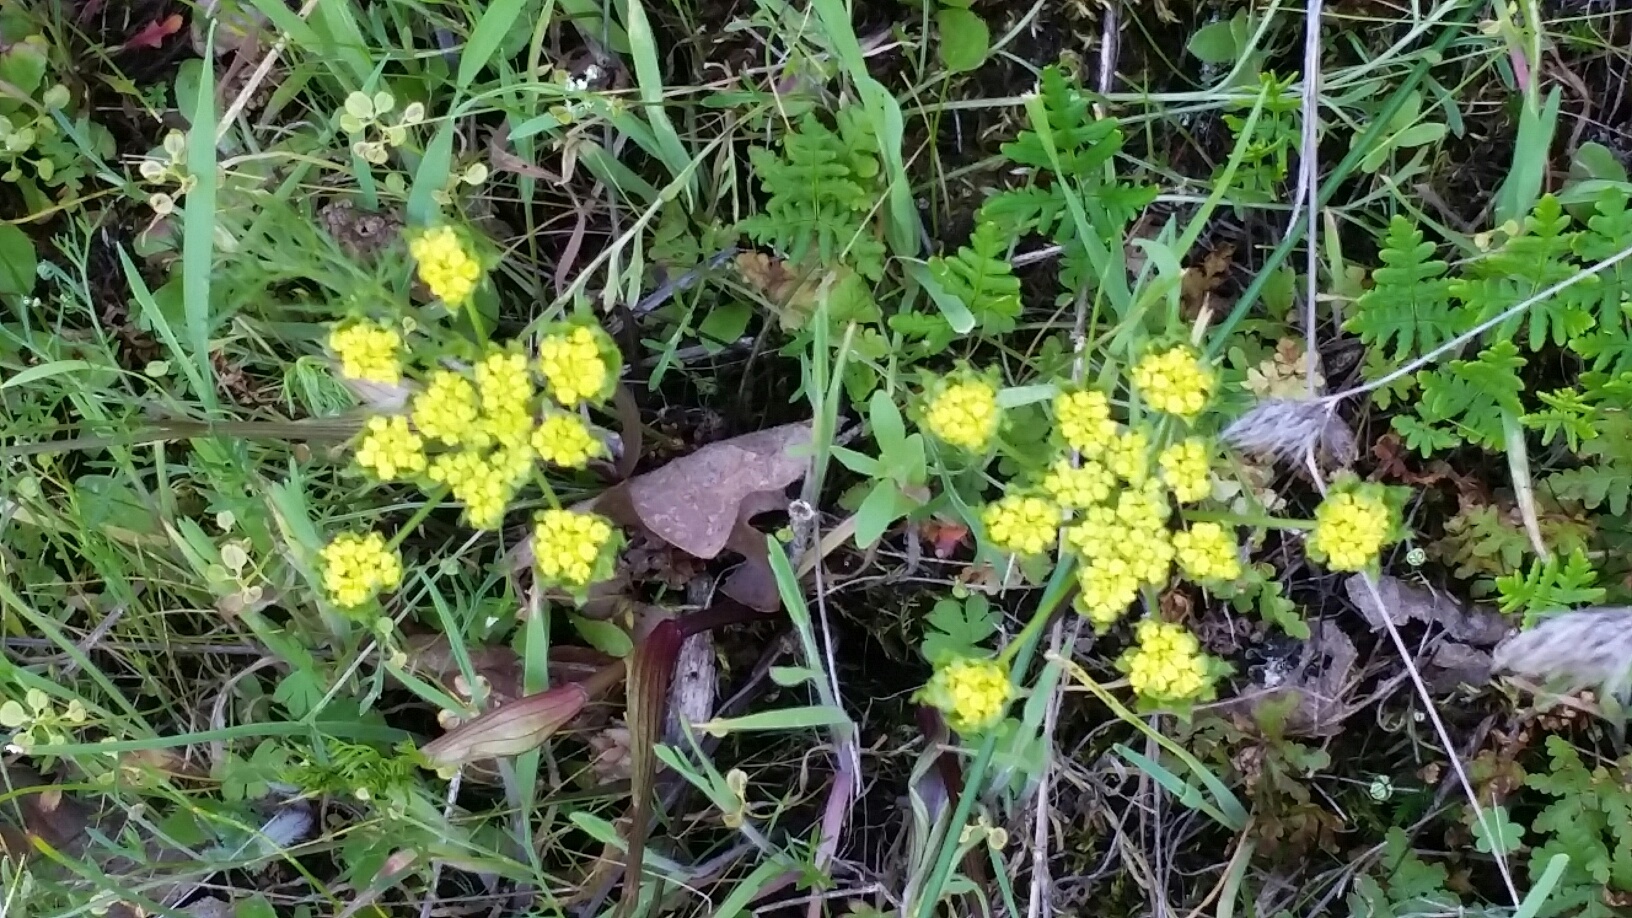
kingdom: Plantae
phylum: Tracheophyta
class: Magnoliopsida
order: Apiales
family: Apiaceae
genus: Lomatium
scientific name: Lomatium utriculatum
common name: Fine-leaf desert-parsley
